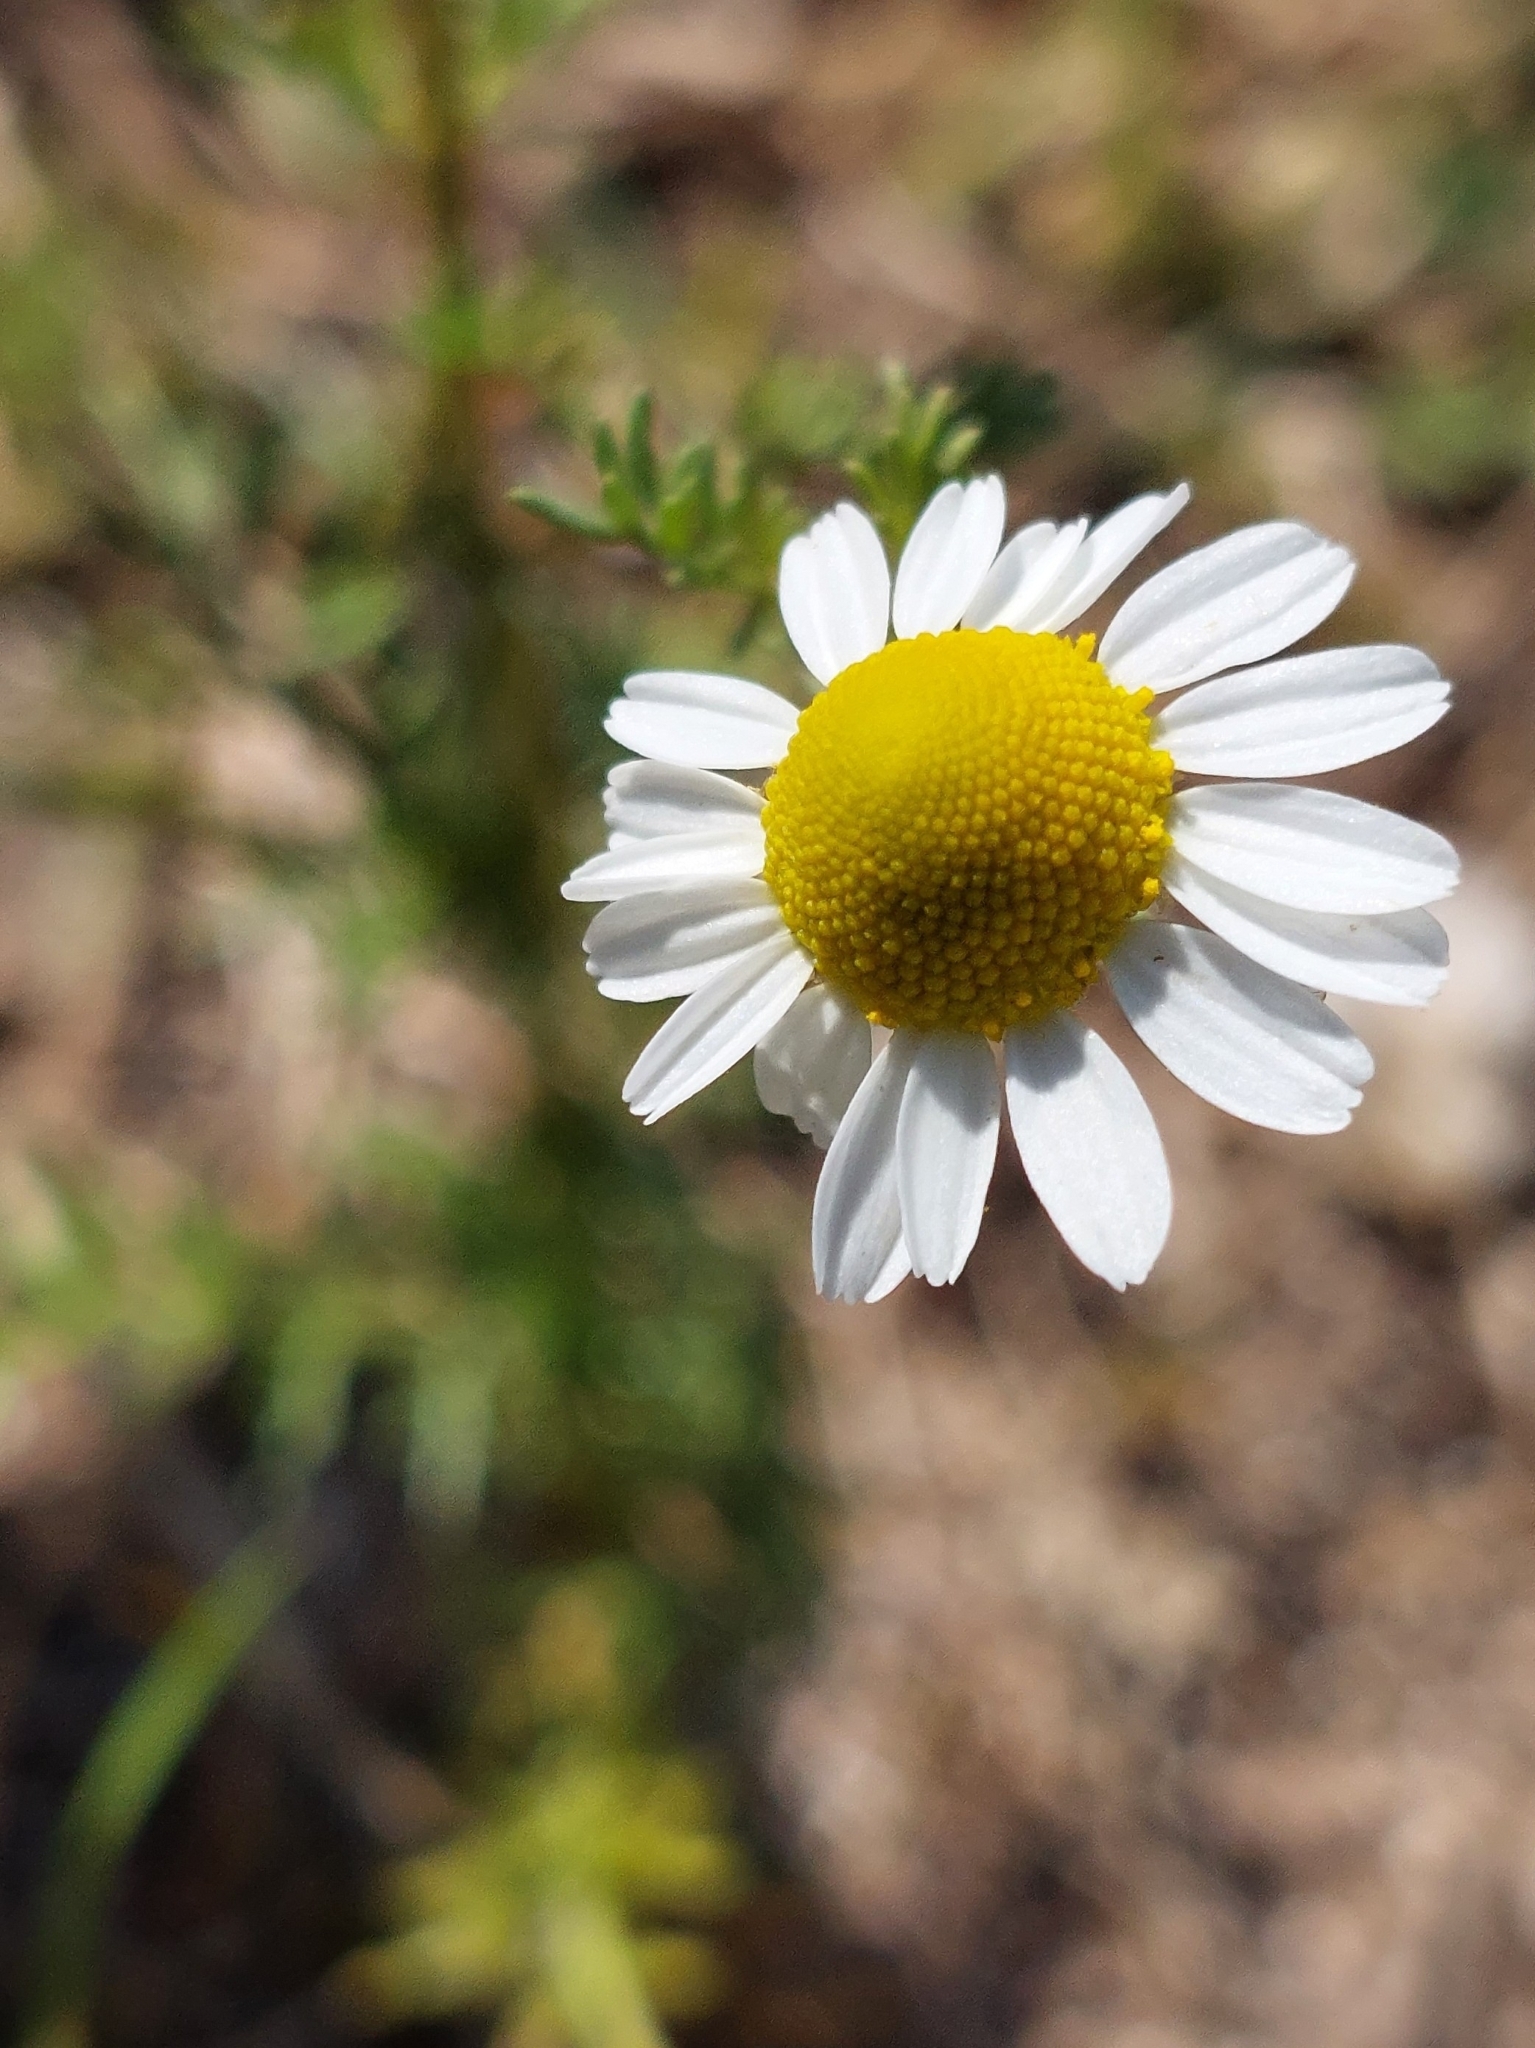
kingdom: Plantae
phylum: Tracheophyta
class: Magnoliopsida
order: Asterales
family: Asteraceae
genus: Matricaria
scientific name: Matricaria chamomilla
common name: Scented mayweed
